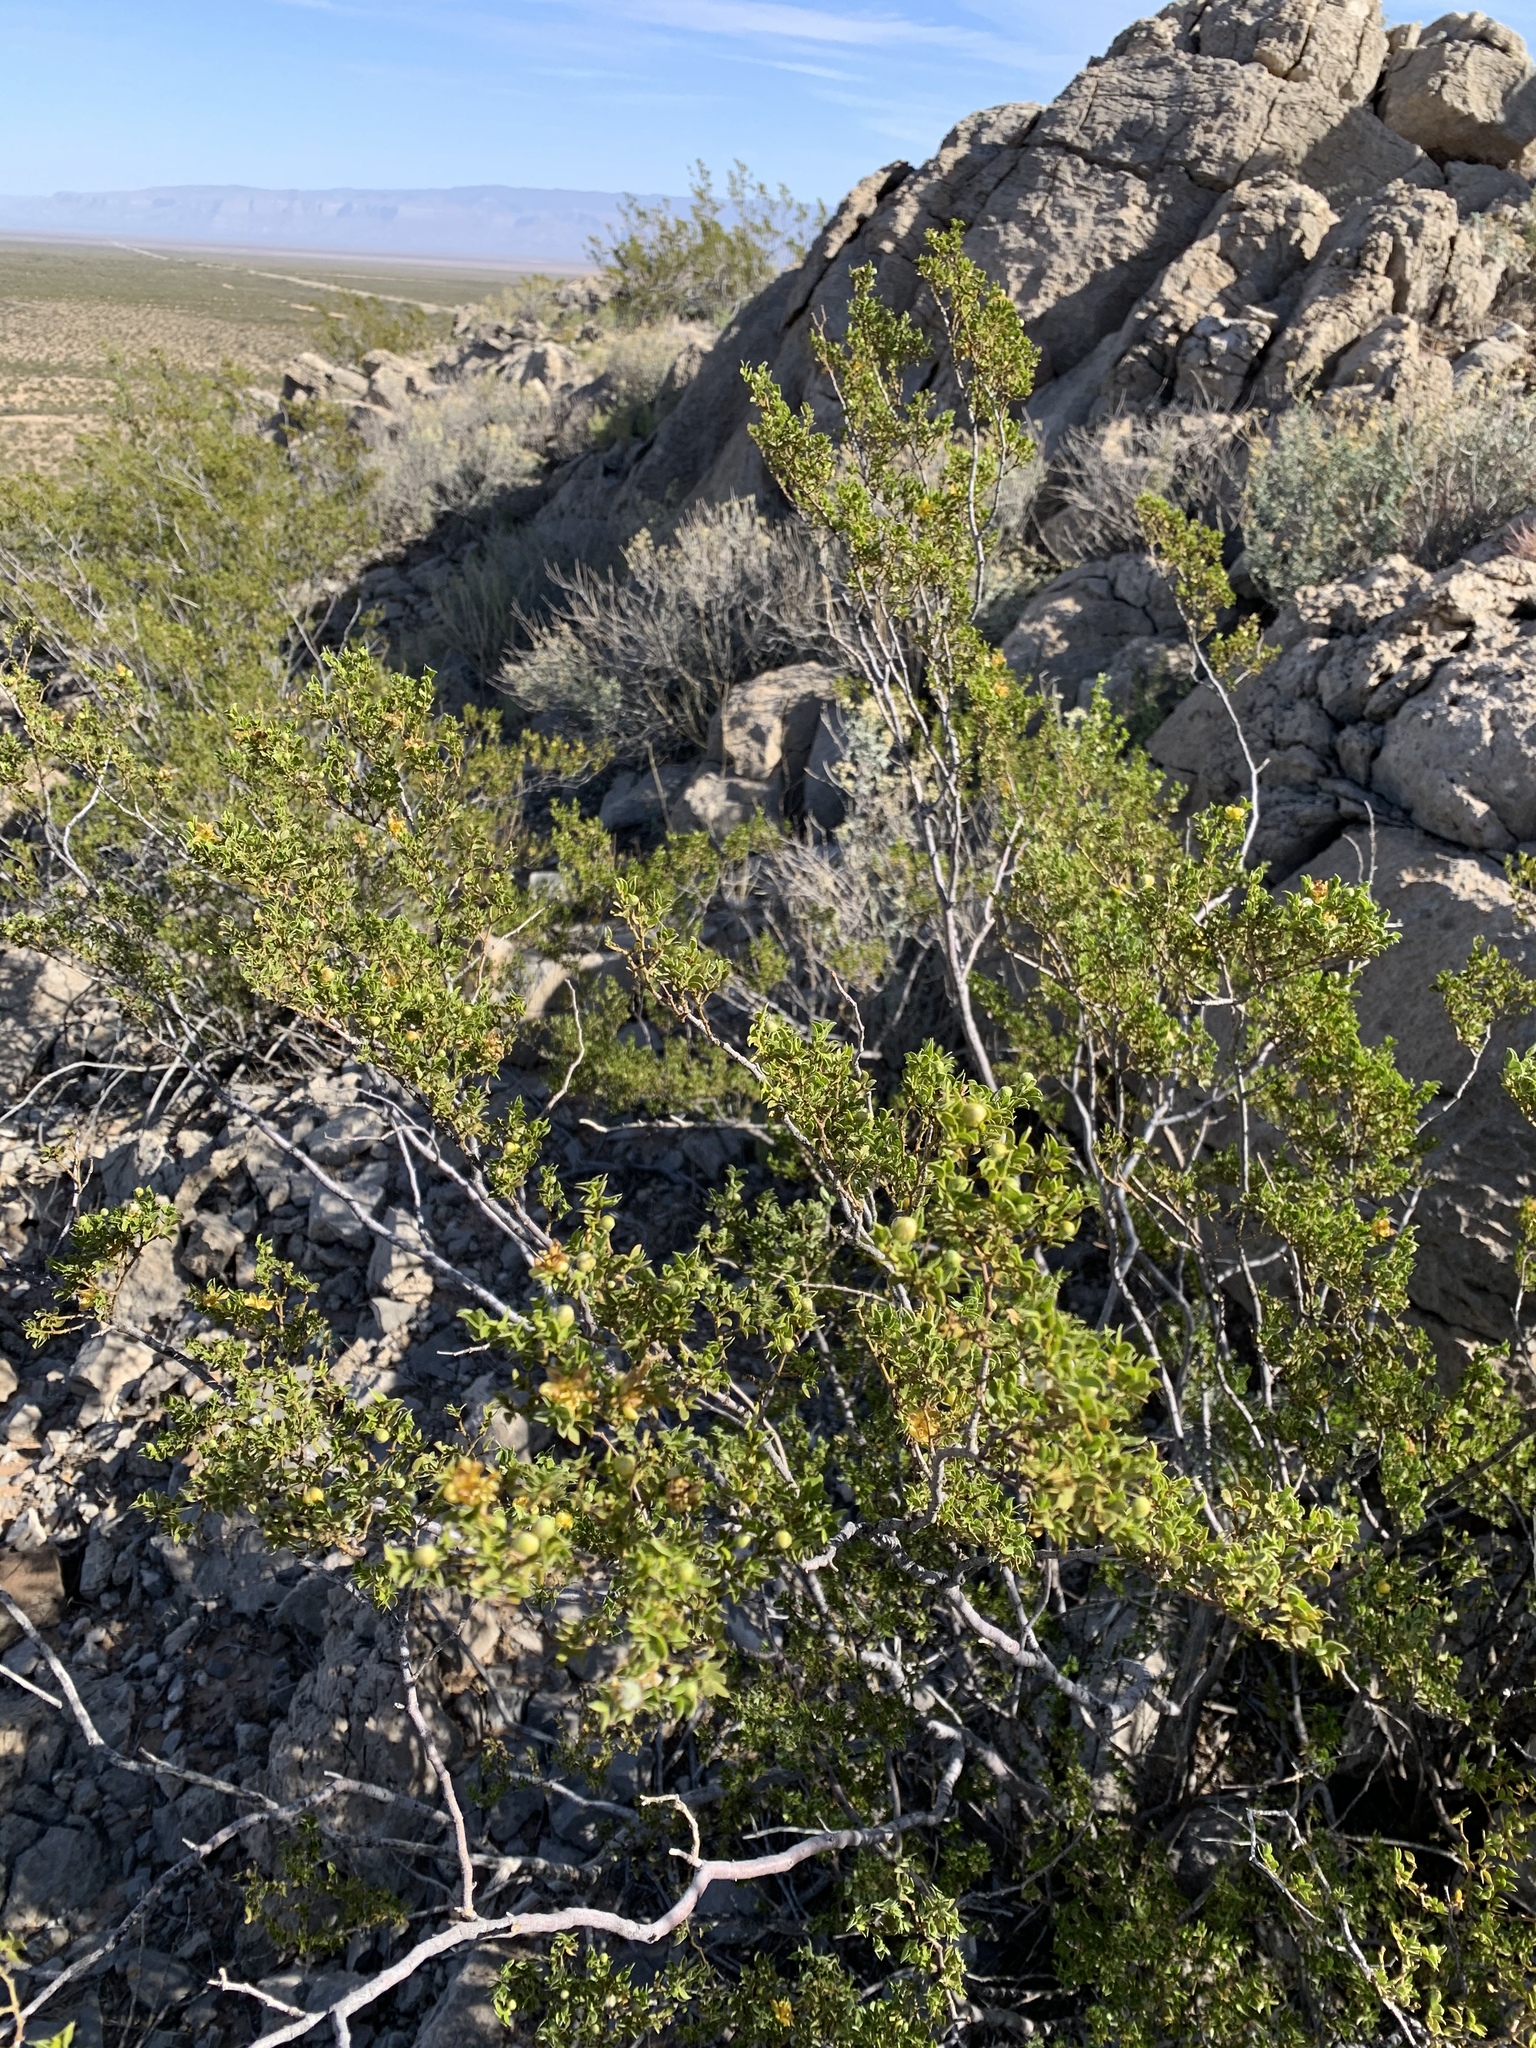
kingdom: Plantae
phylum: Tracheophyta
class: Magnoliopsida
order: Zygophyllales
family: Zygophyllaceae
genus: Larrea
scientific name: Larrea tridentata
